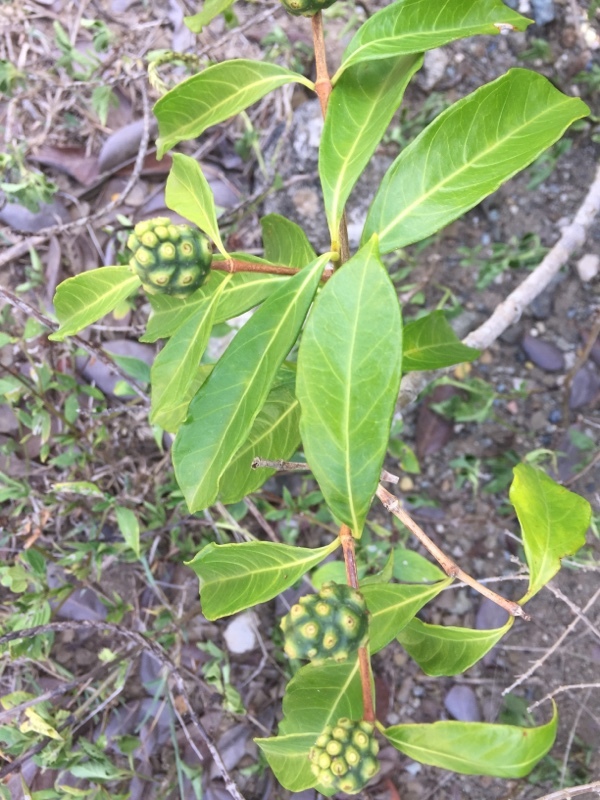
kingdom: Plantae
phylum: Tracheophyta
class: Magnoliopsida
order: Gentianales
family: Rubiaceae
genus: Morinda
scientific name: Morinda royoc
